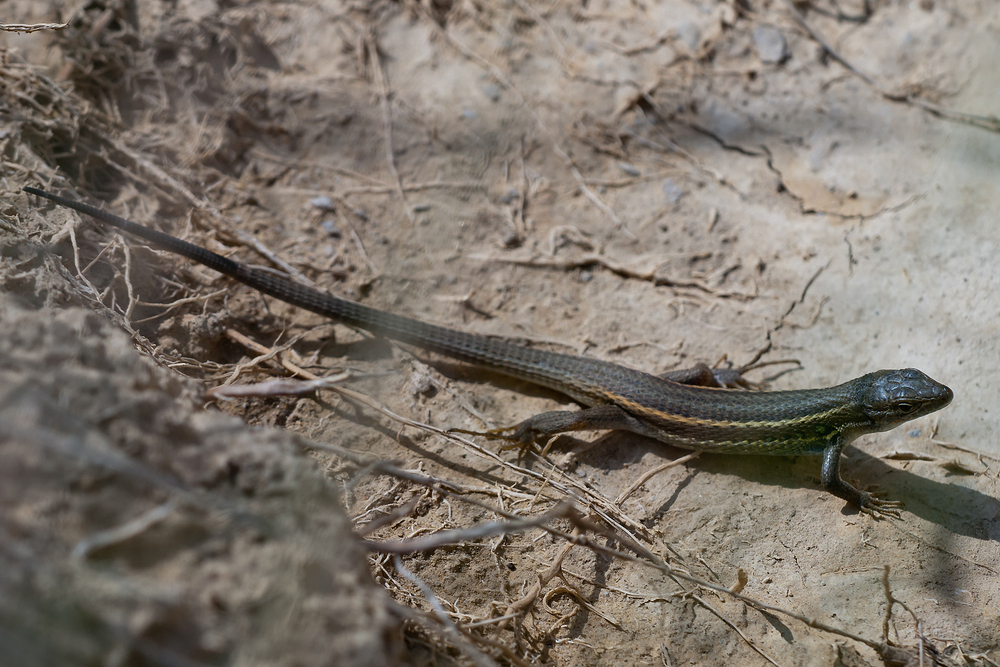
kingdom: Animalia
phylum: Chordata
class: Squamata
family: Lacertidae
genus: Psammodromus
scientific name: Psammodromus algirus
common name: Algerian psammodromus
